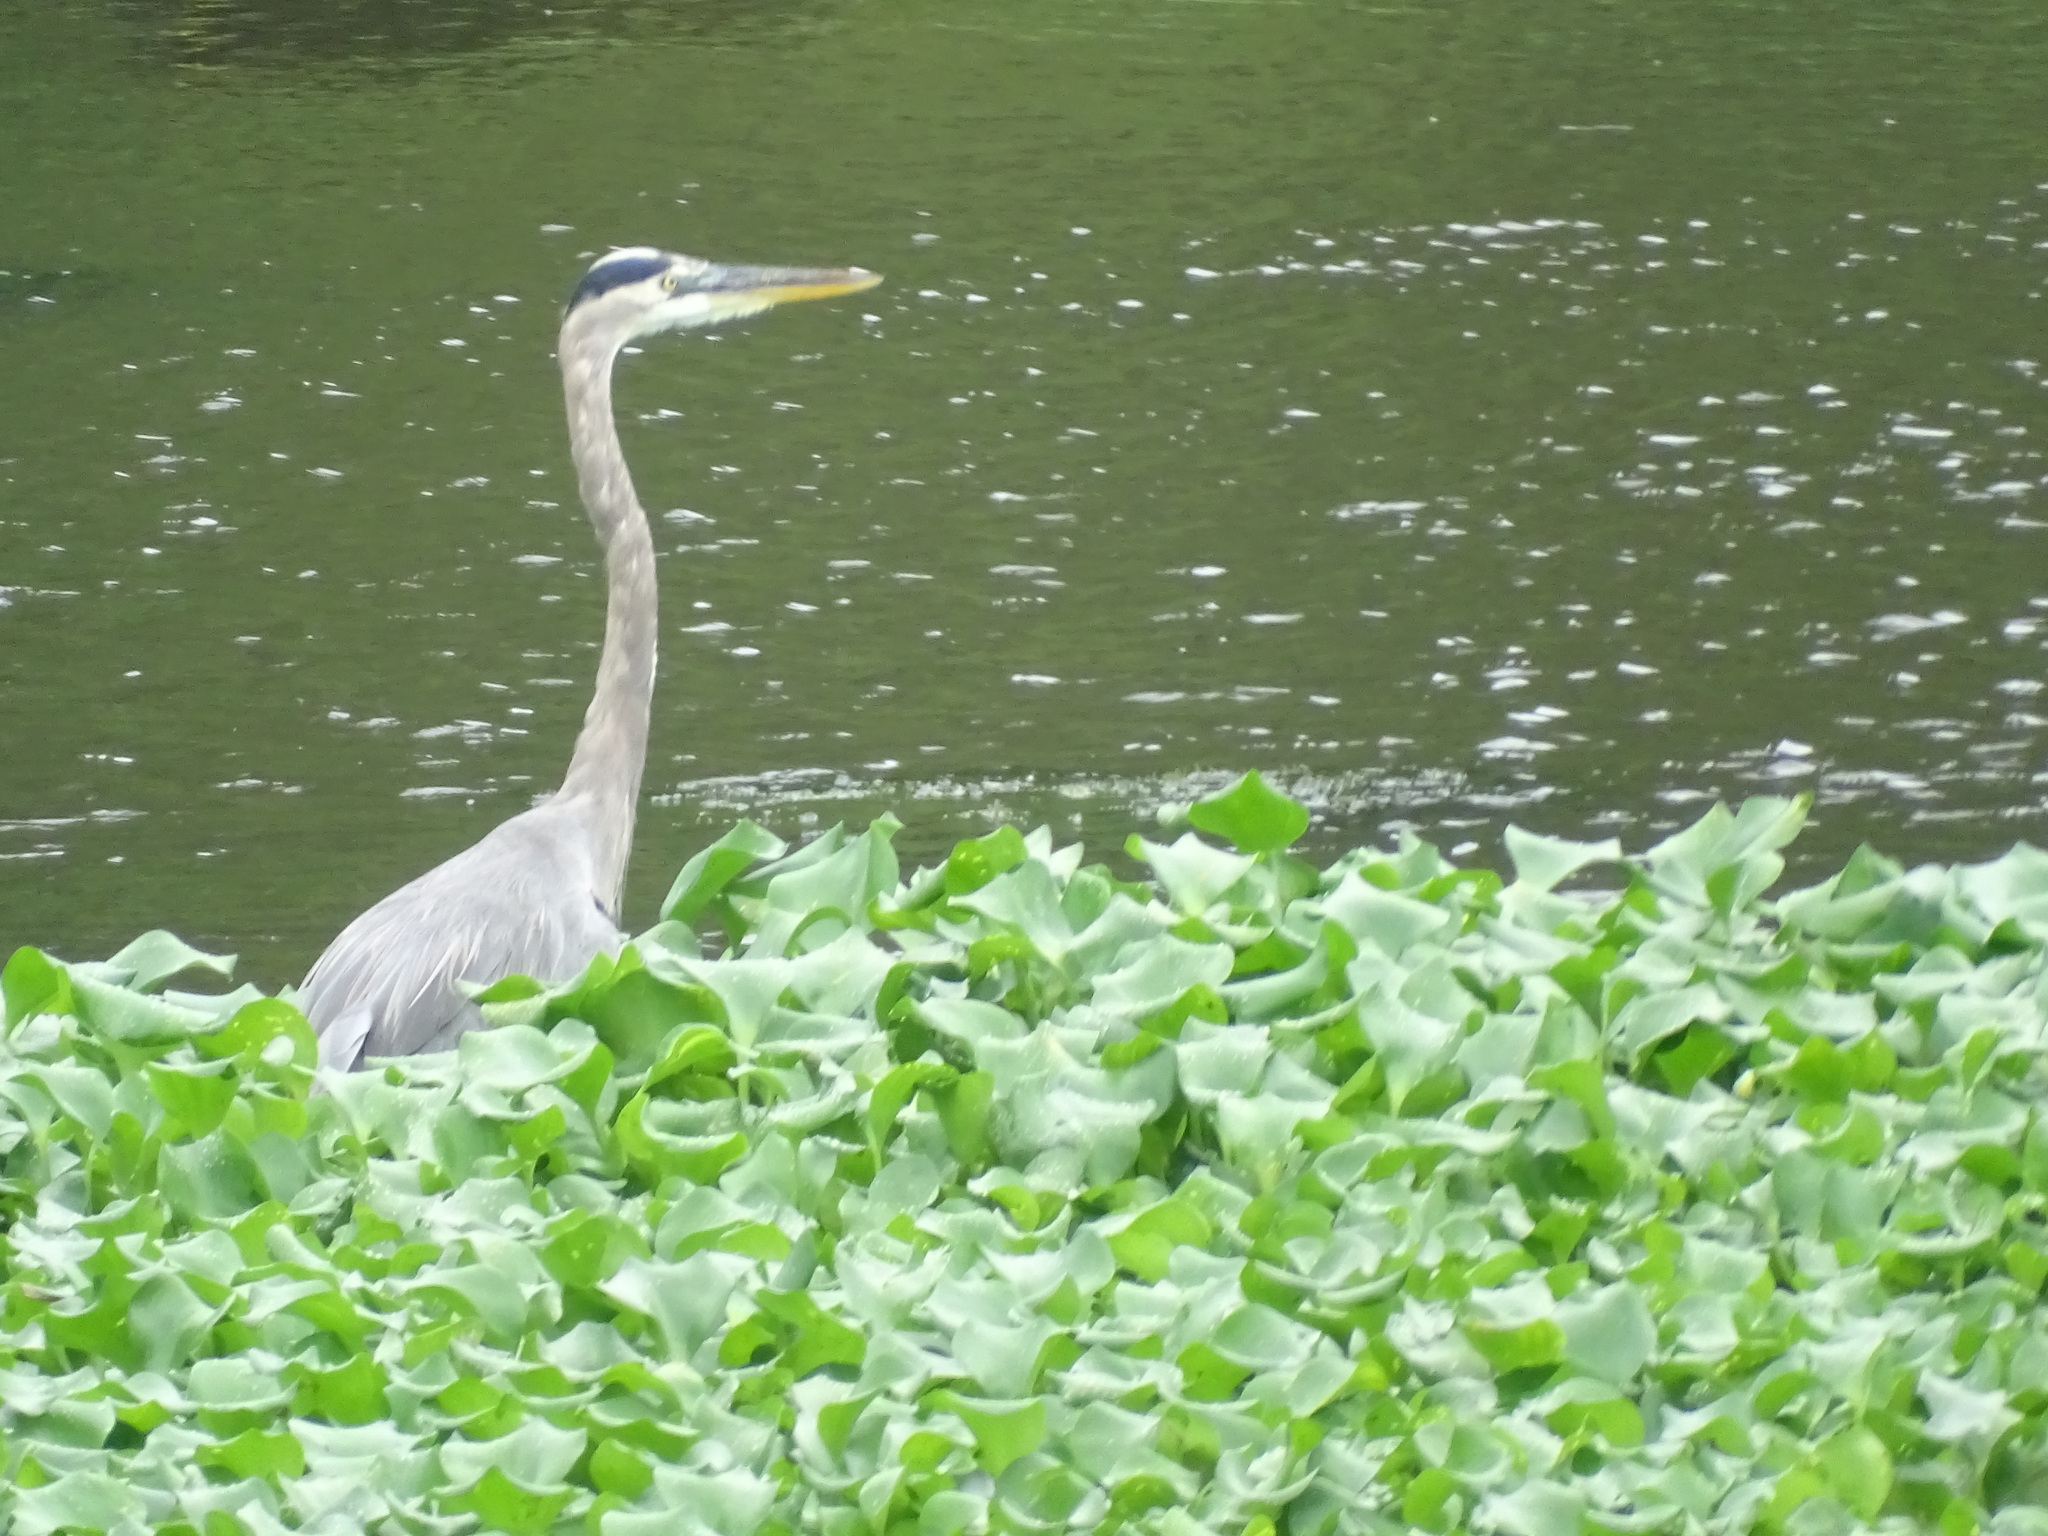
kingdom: Animalia
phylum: Chordata
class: Aves
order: Pelecaniformes
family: Ardeidae
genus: Ardea
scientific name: Ardea herodias
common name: Great blue heron
